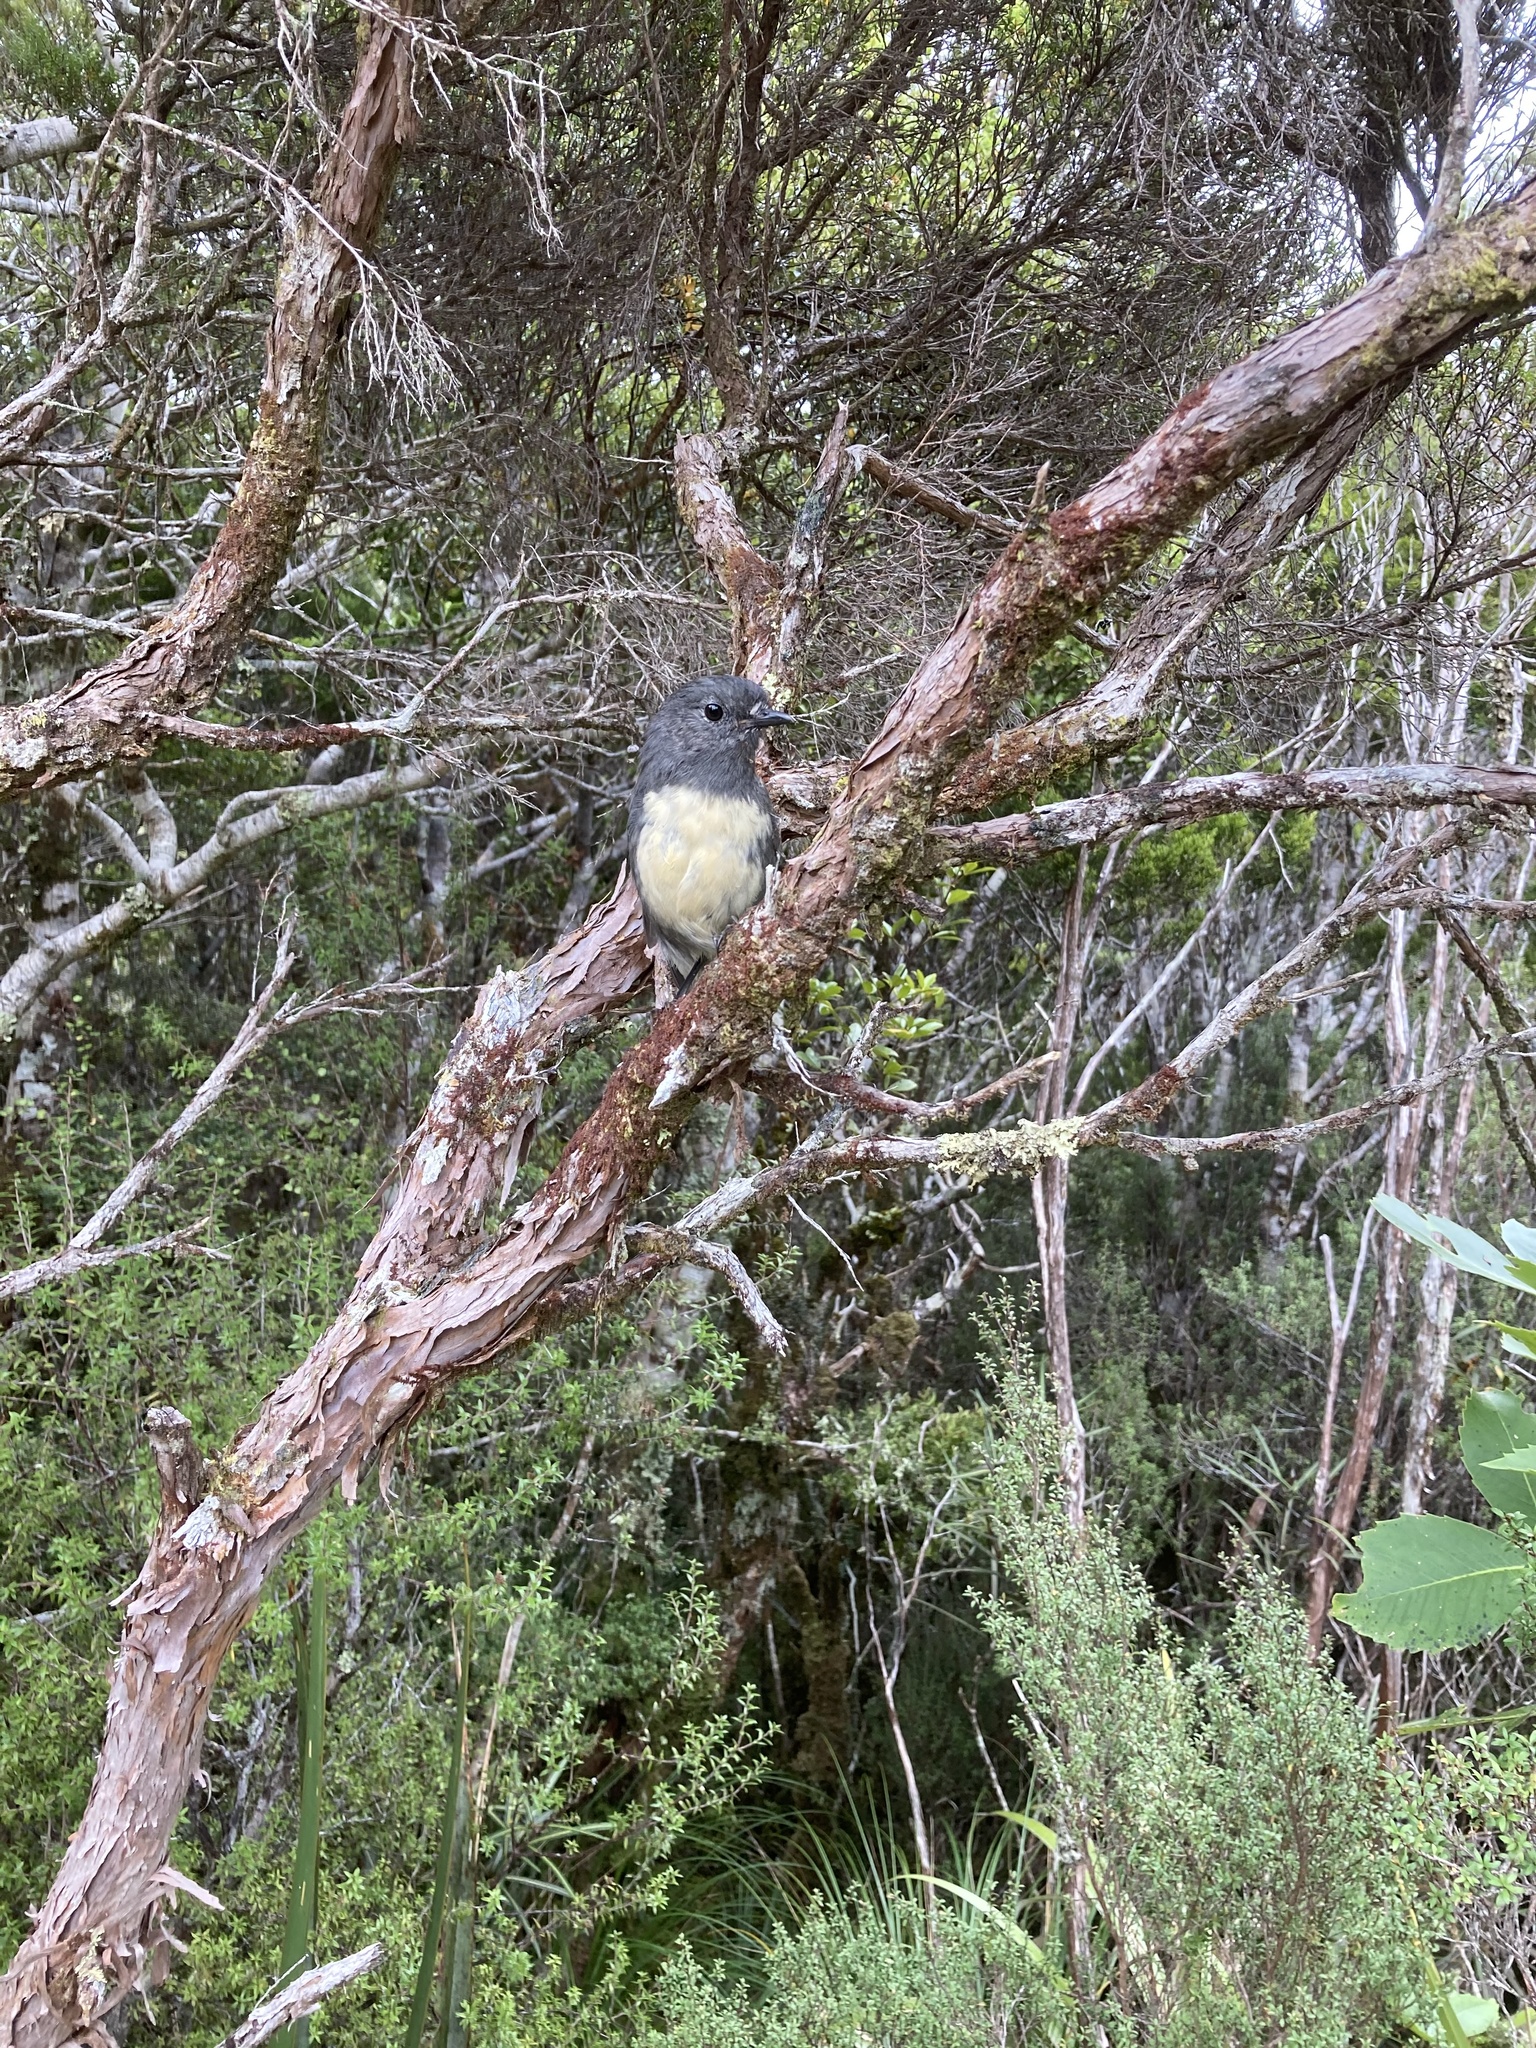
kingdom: Animalia
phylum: Chordata
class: Aves
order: Passeriformes
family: Petroicidae
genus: Petroica
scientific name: Petroica australis
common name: New zealand robin
